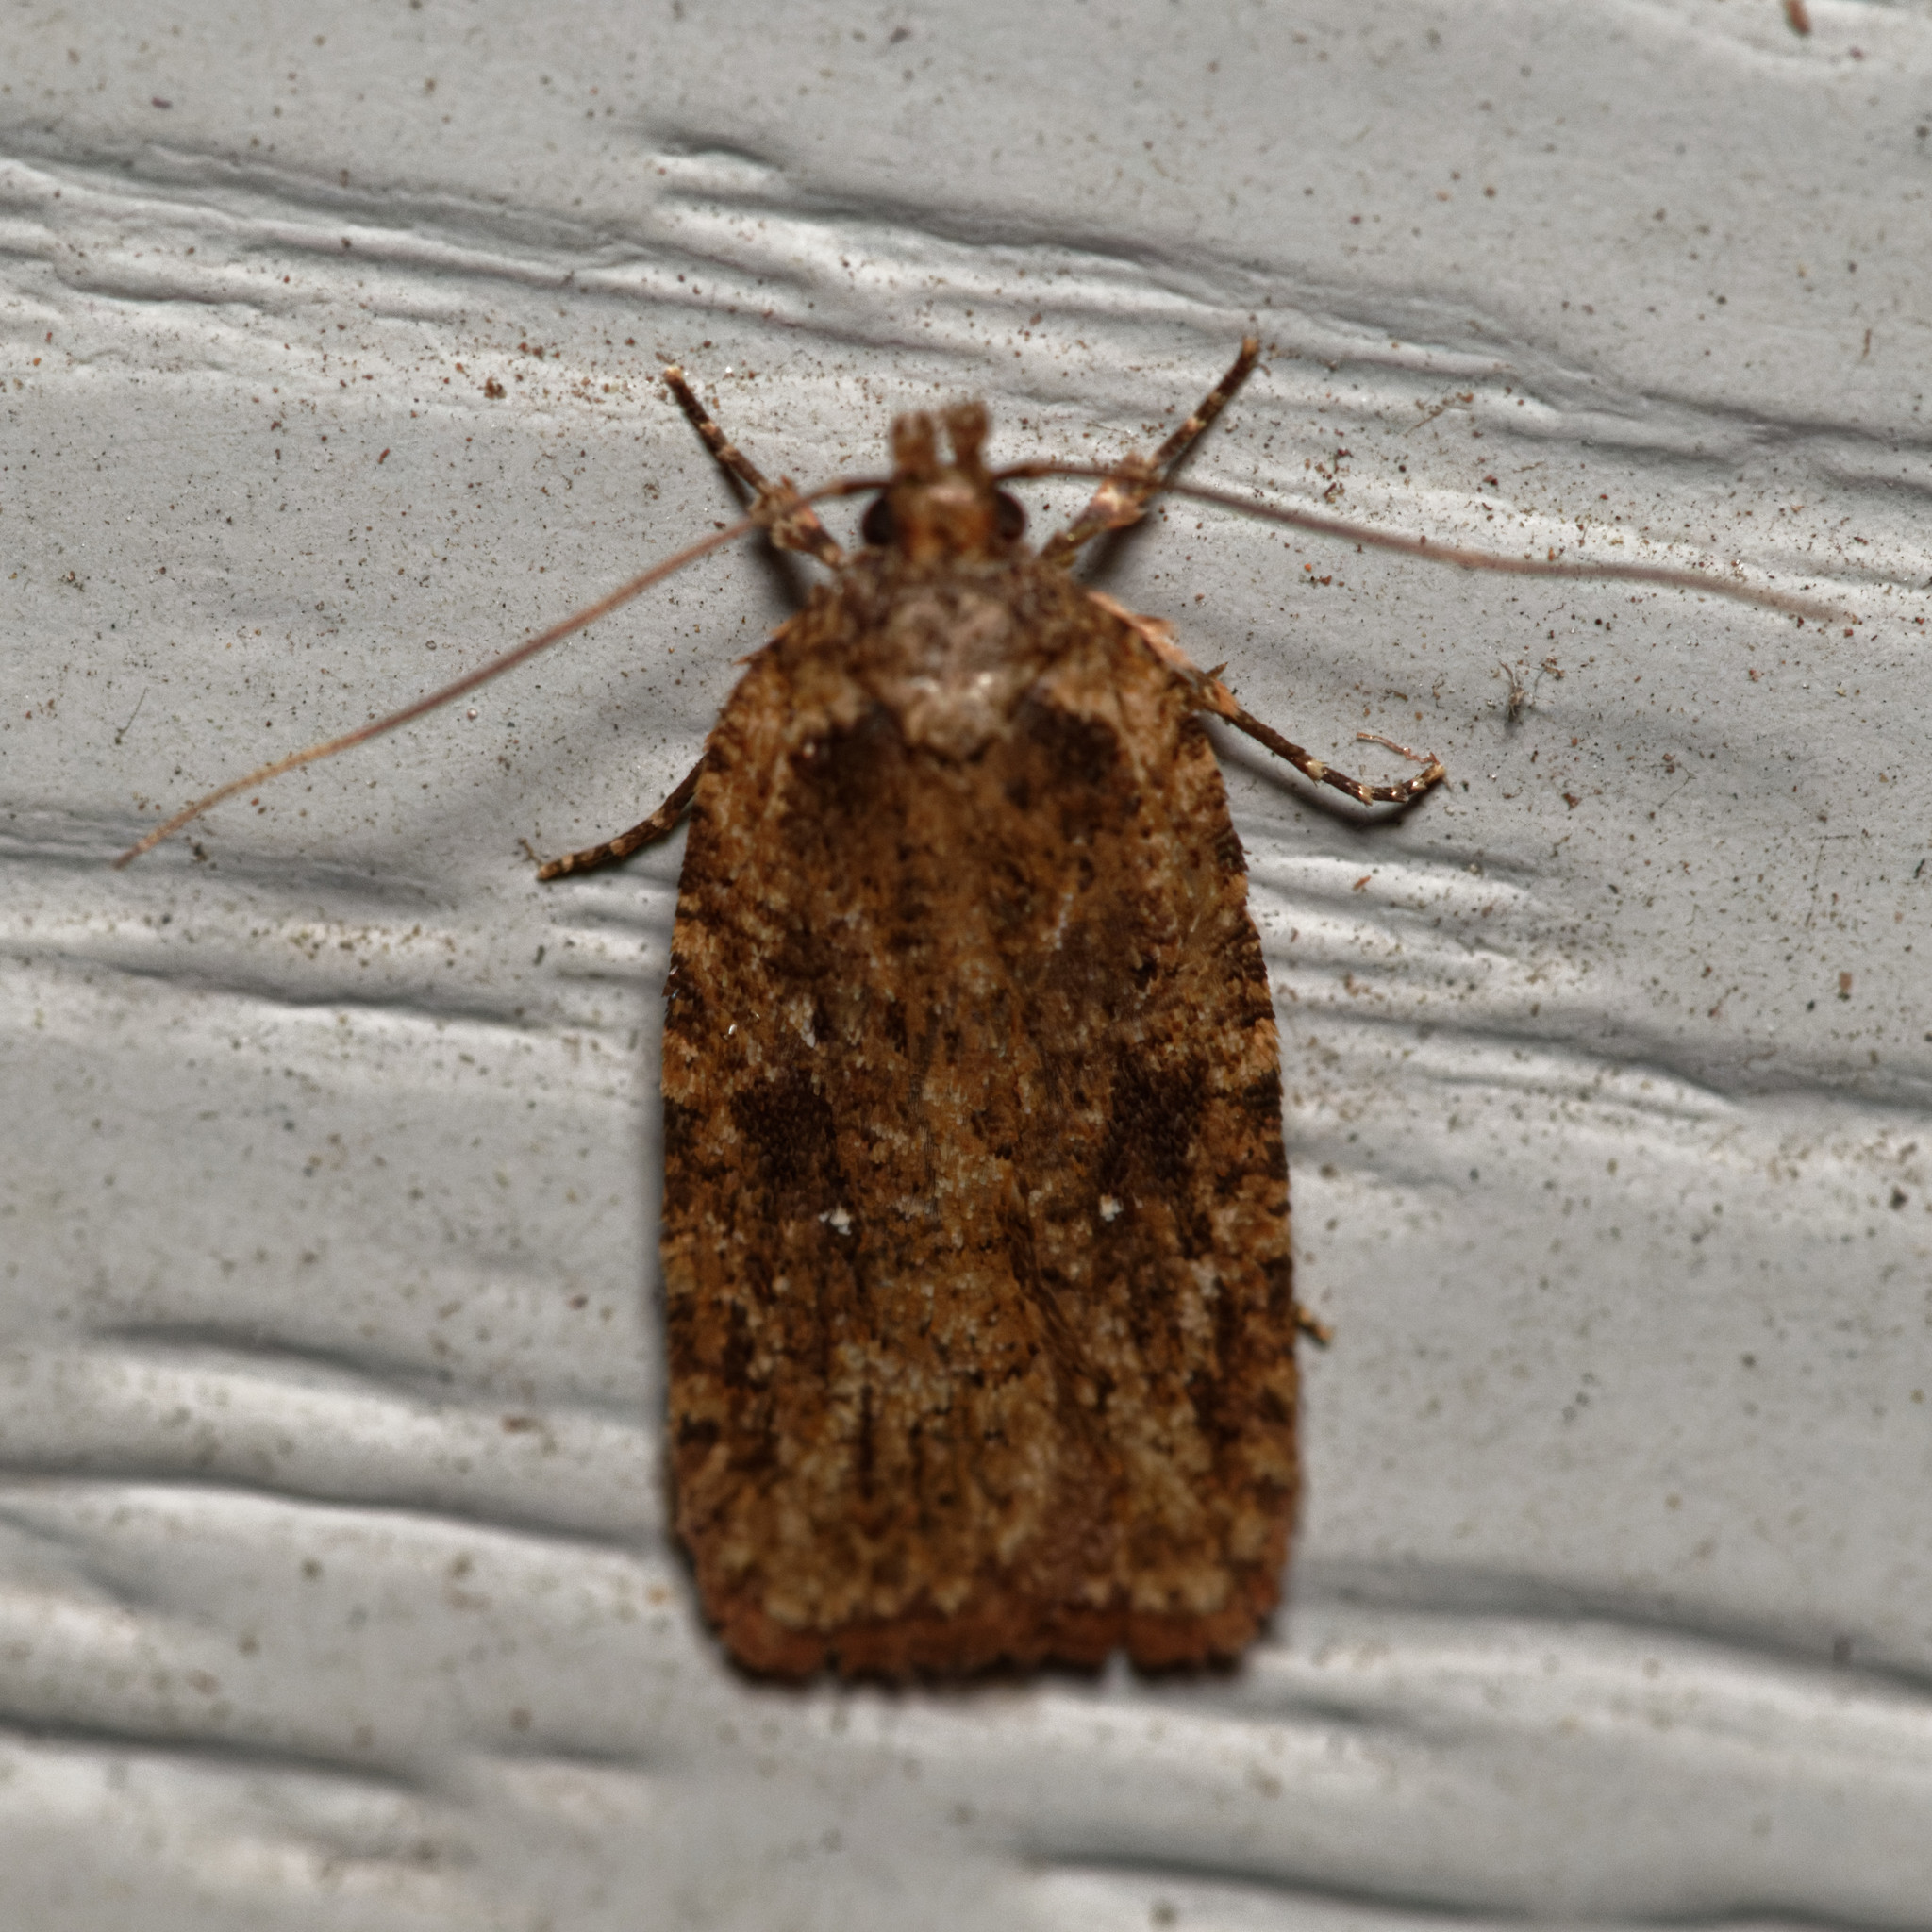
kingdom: Animalia
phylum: Arthropoda
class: Insecta
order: Lepidoptera
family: Depressariidae
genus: Agonopterix
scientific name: Agonopterix pulvipennella
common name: Goldenrod leafffolder
